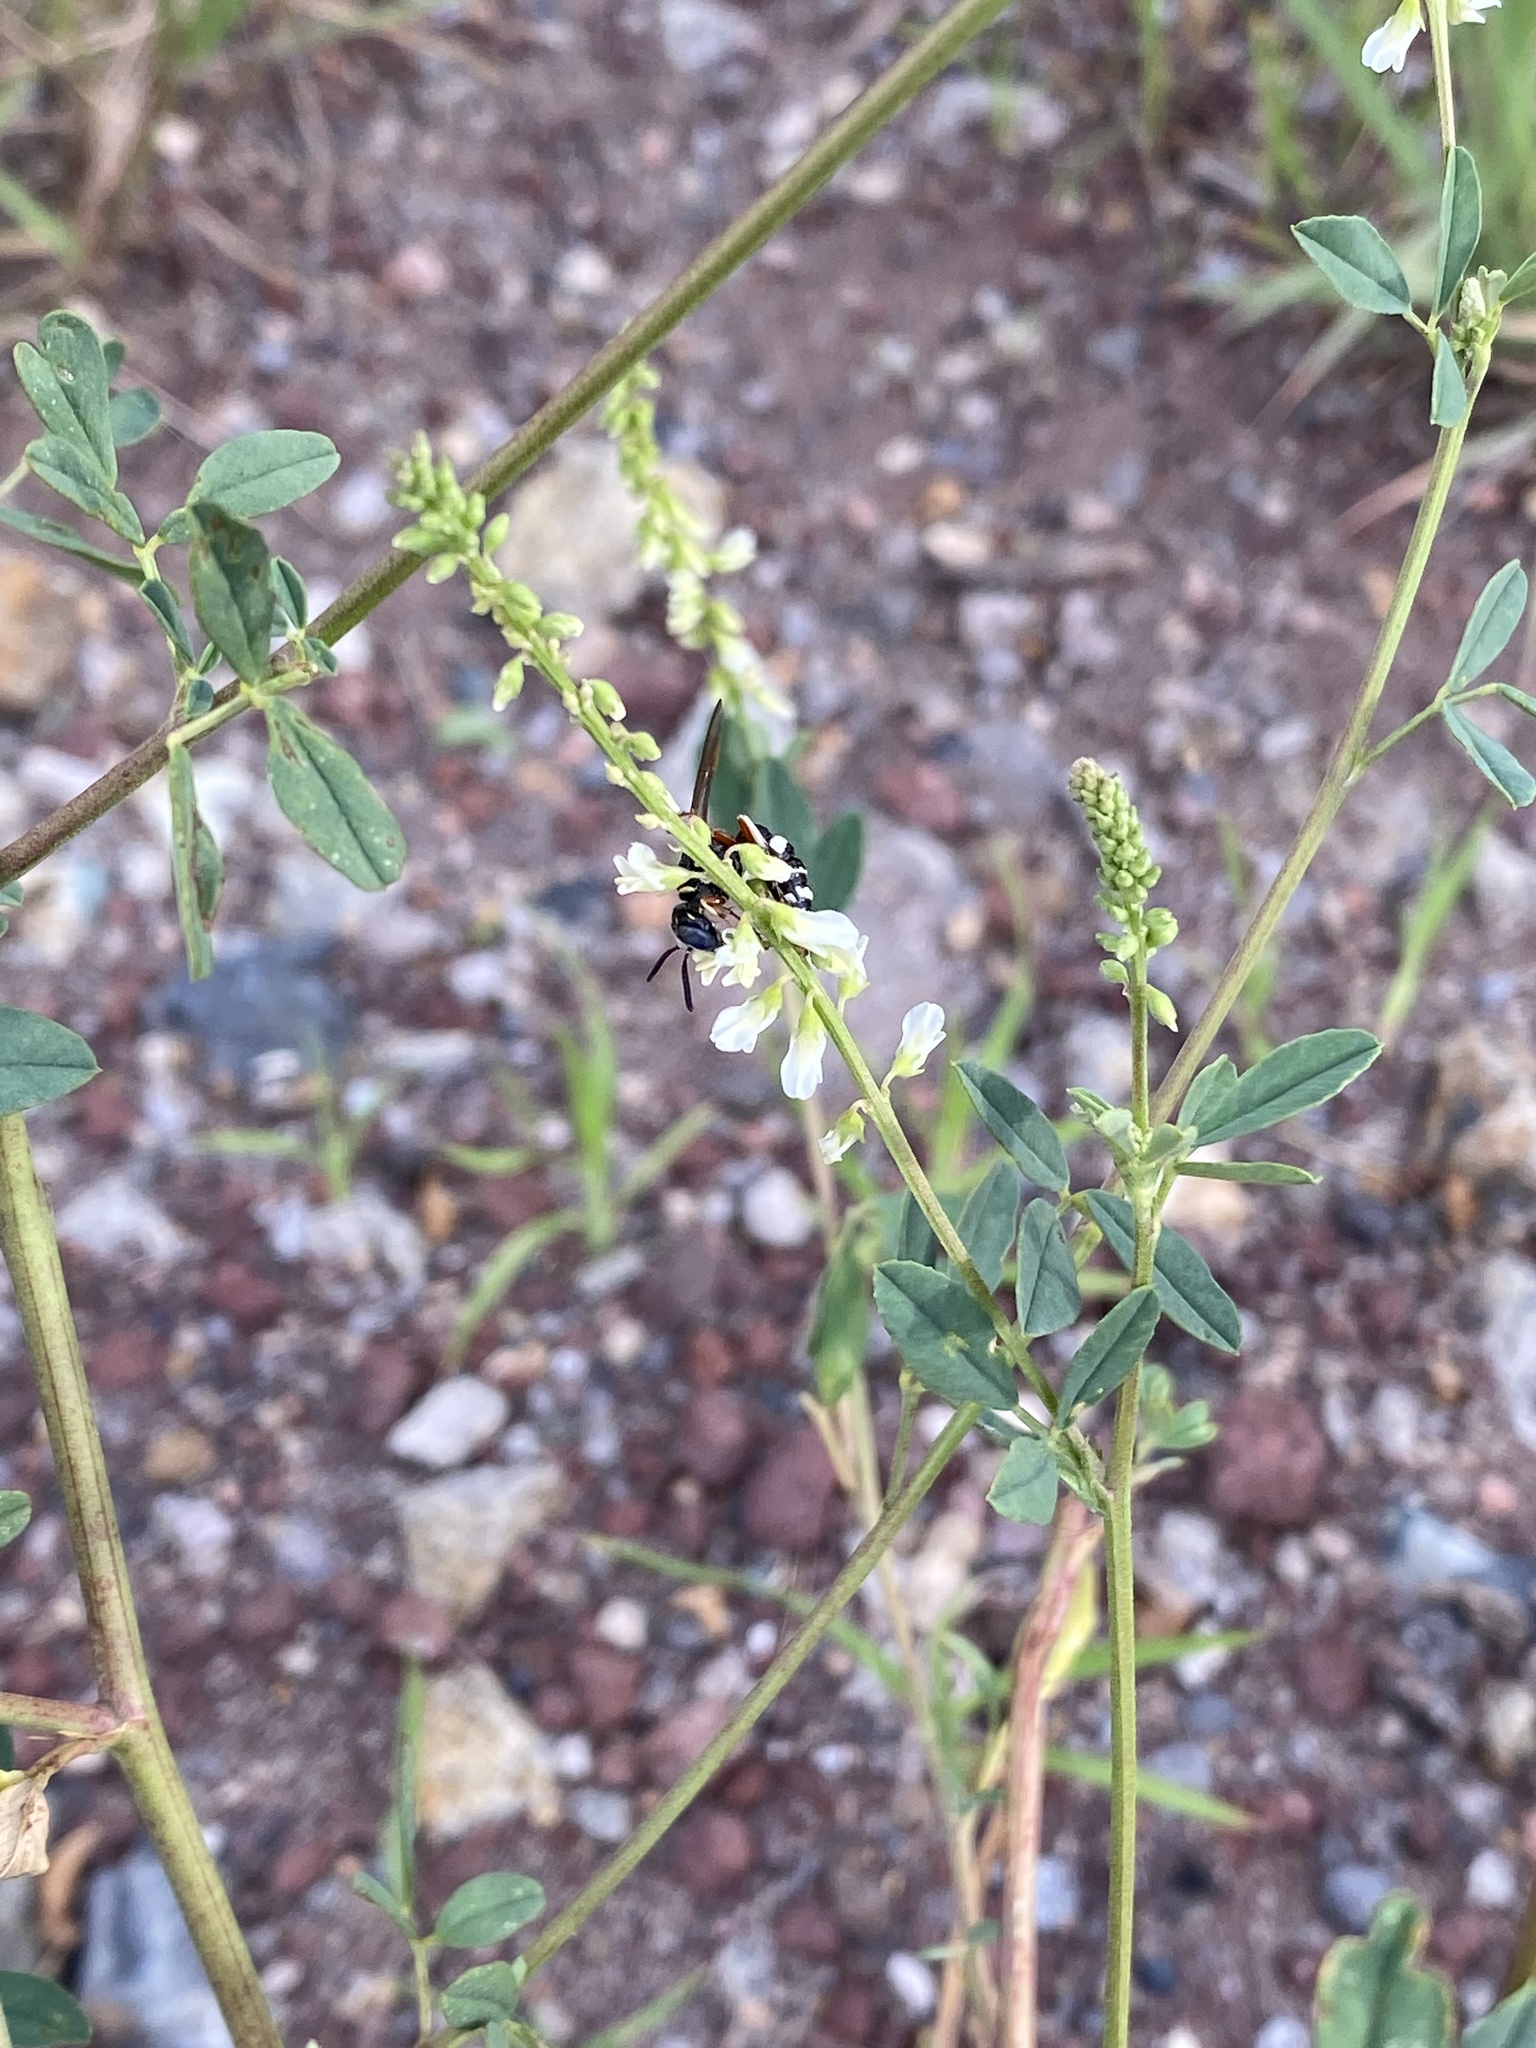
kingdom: Plantae
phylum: Tracheophyta
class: Magnoliopsida
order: Fabales
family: Fabaceae
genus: Melilotus
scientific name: Melilotus albus
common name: White melilot
